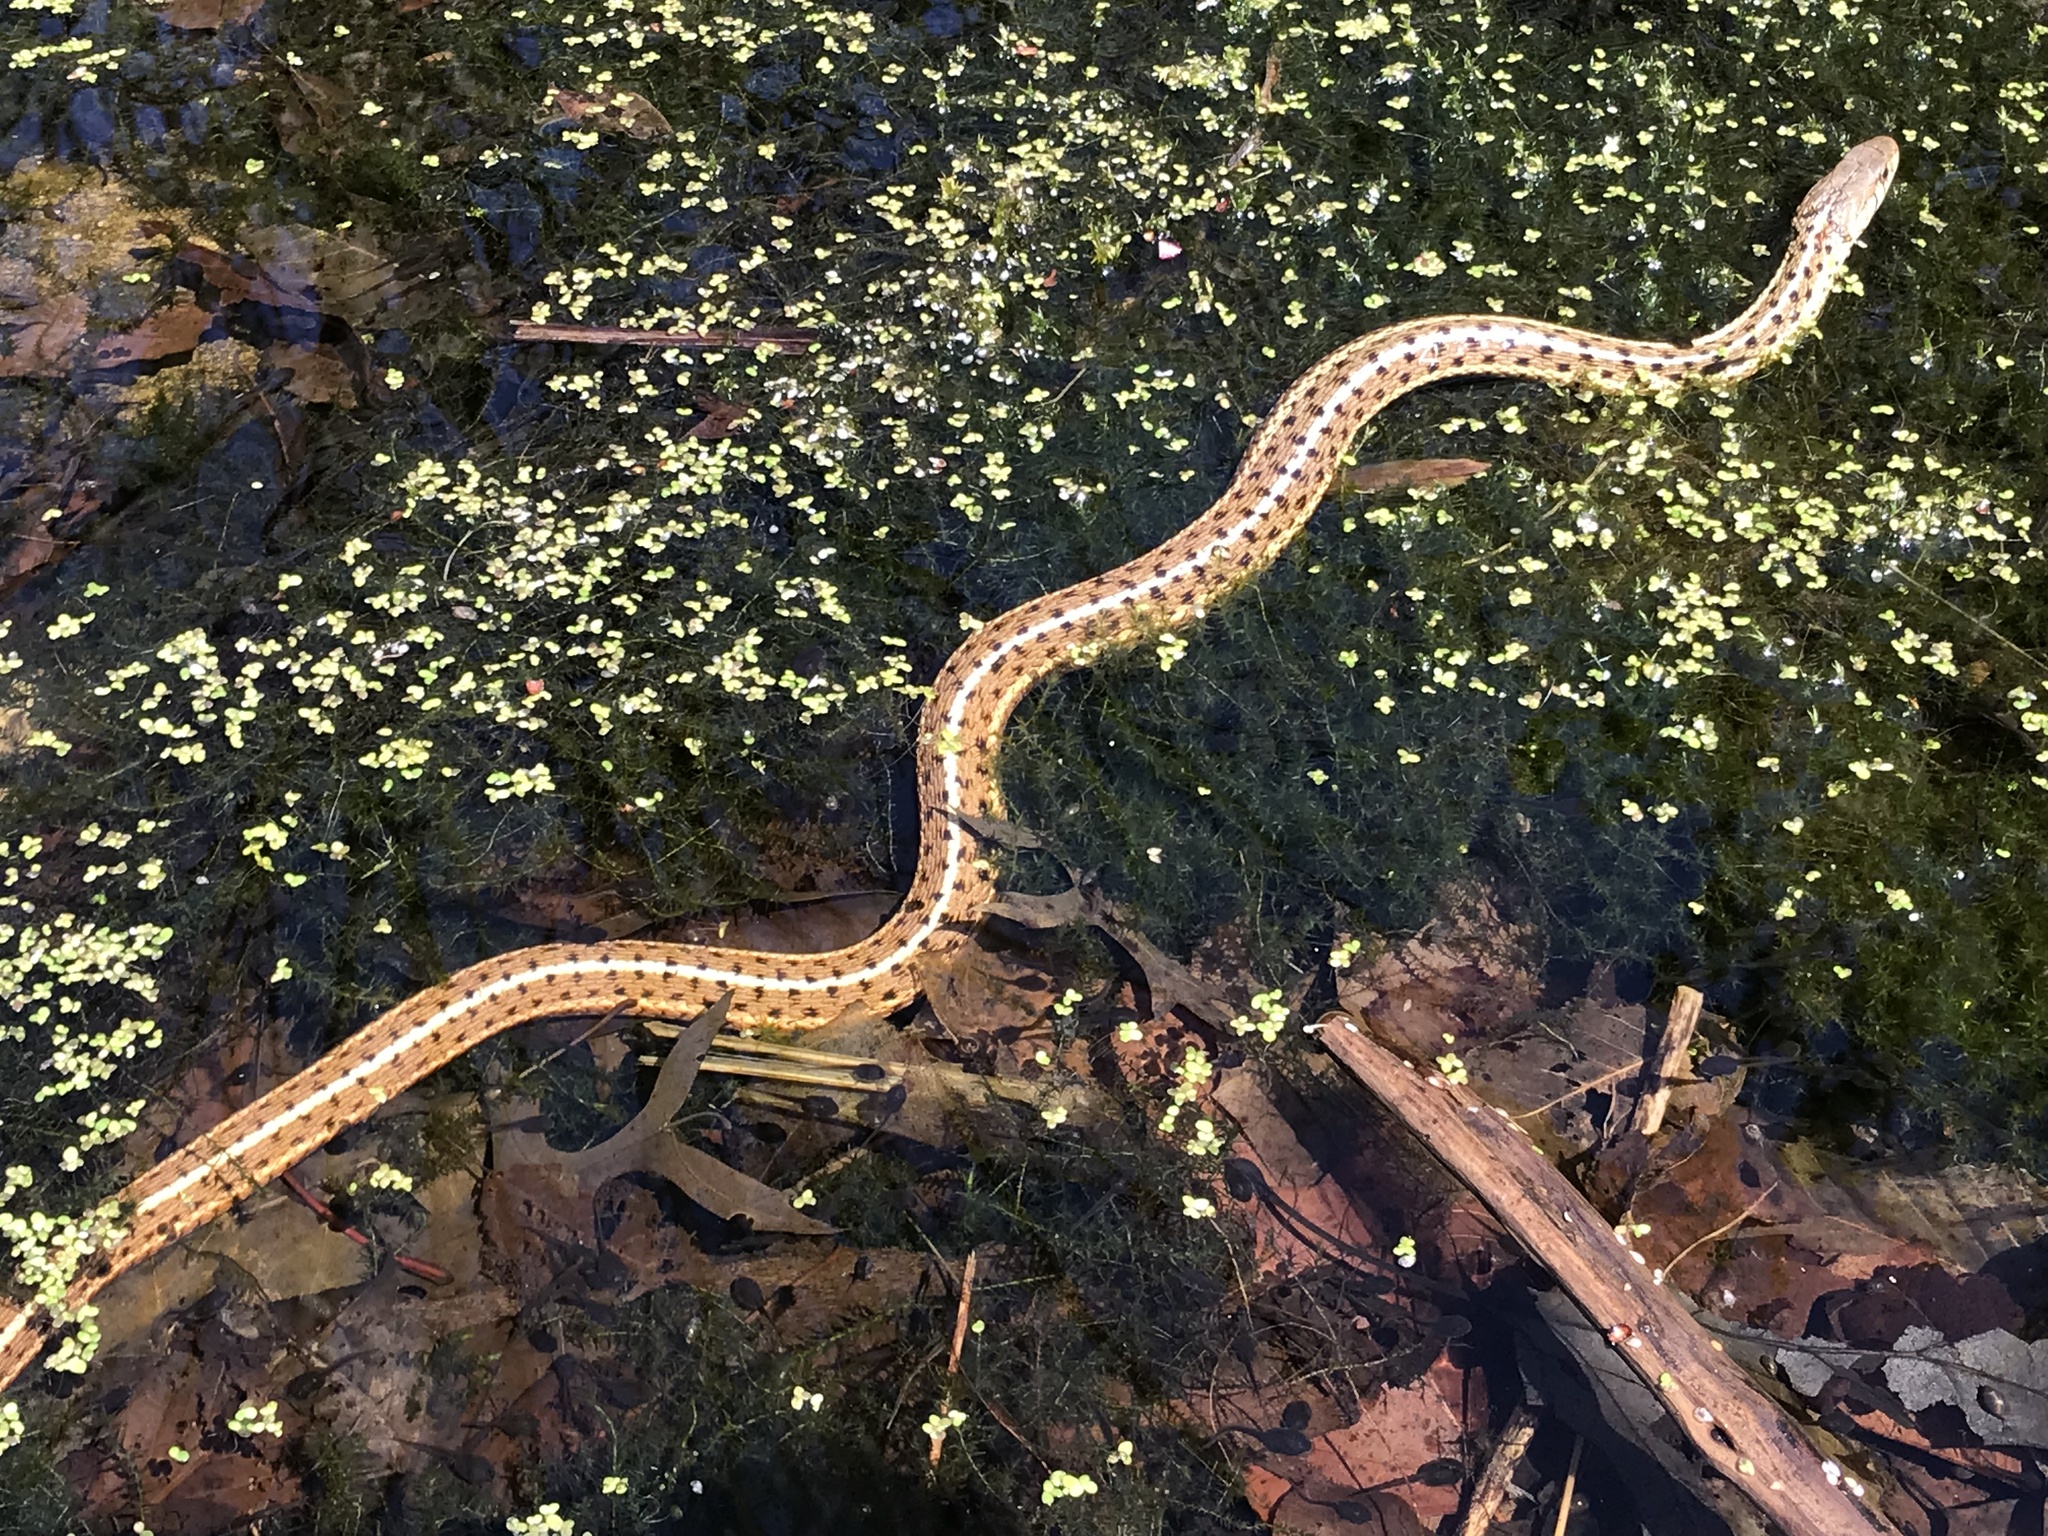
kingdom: Animalia
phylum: Chordata
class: Squamata
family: Colubridae
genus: Thamnophis
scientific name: Thamnophis sirtalis
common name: Common garter snake
